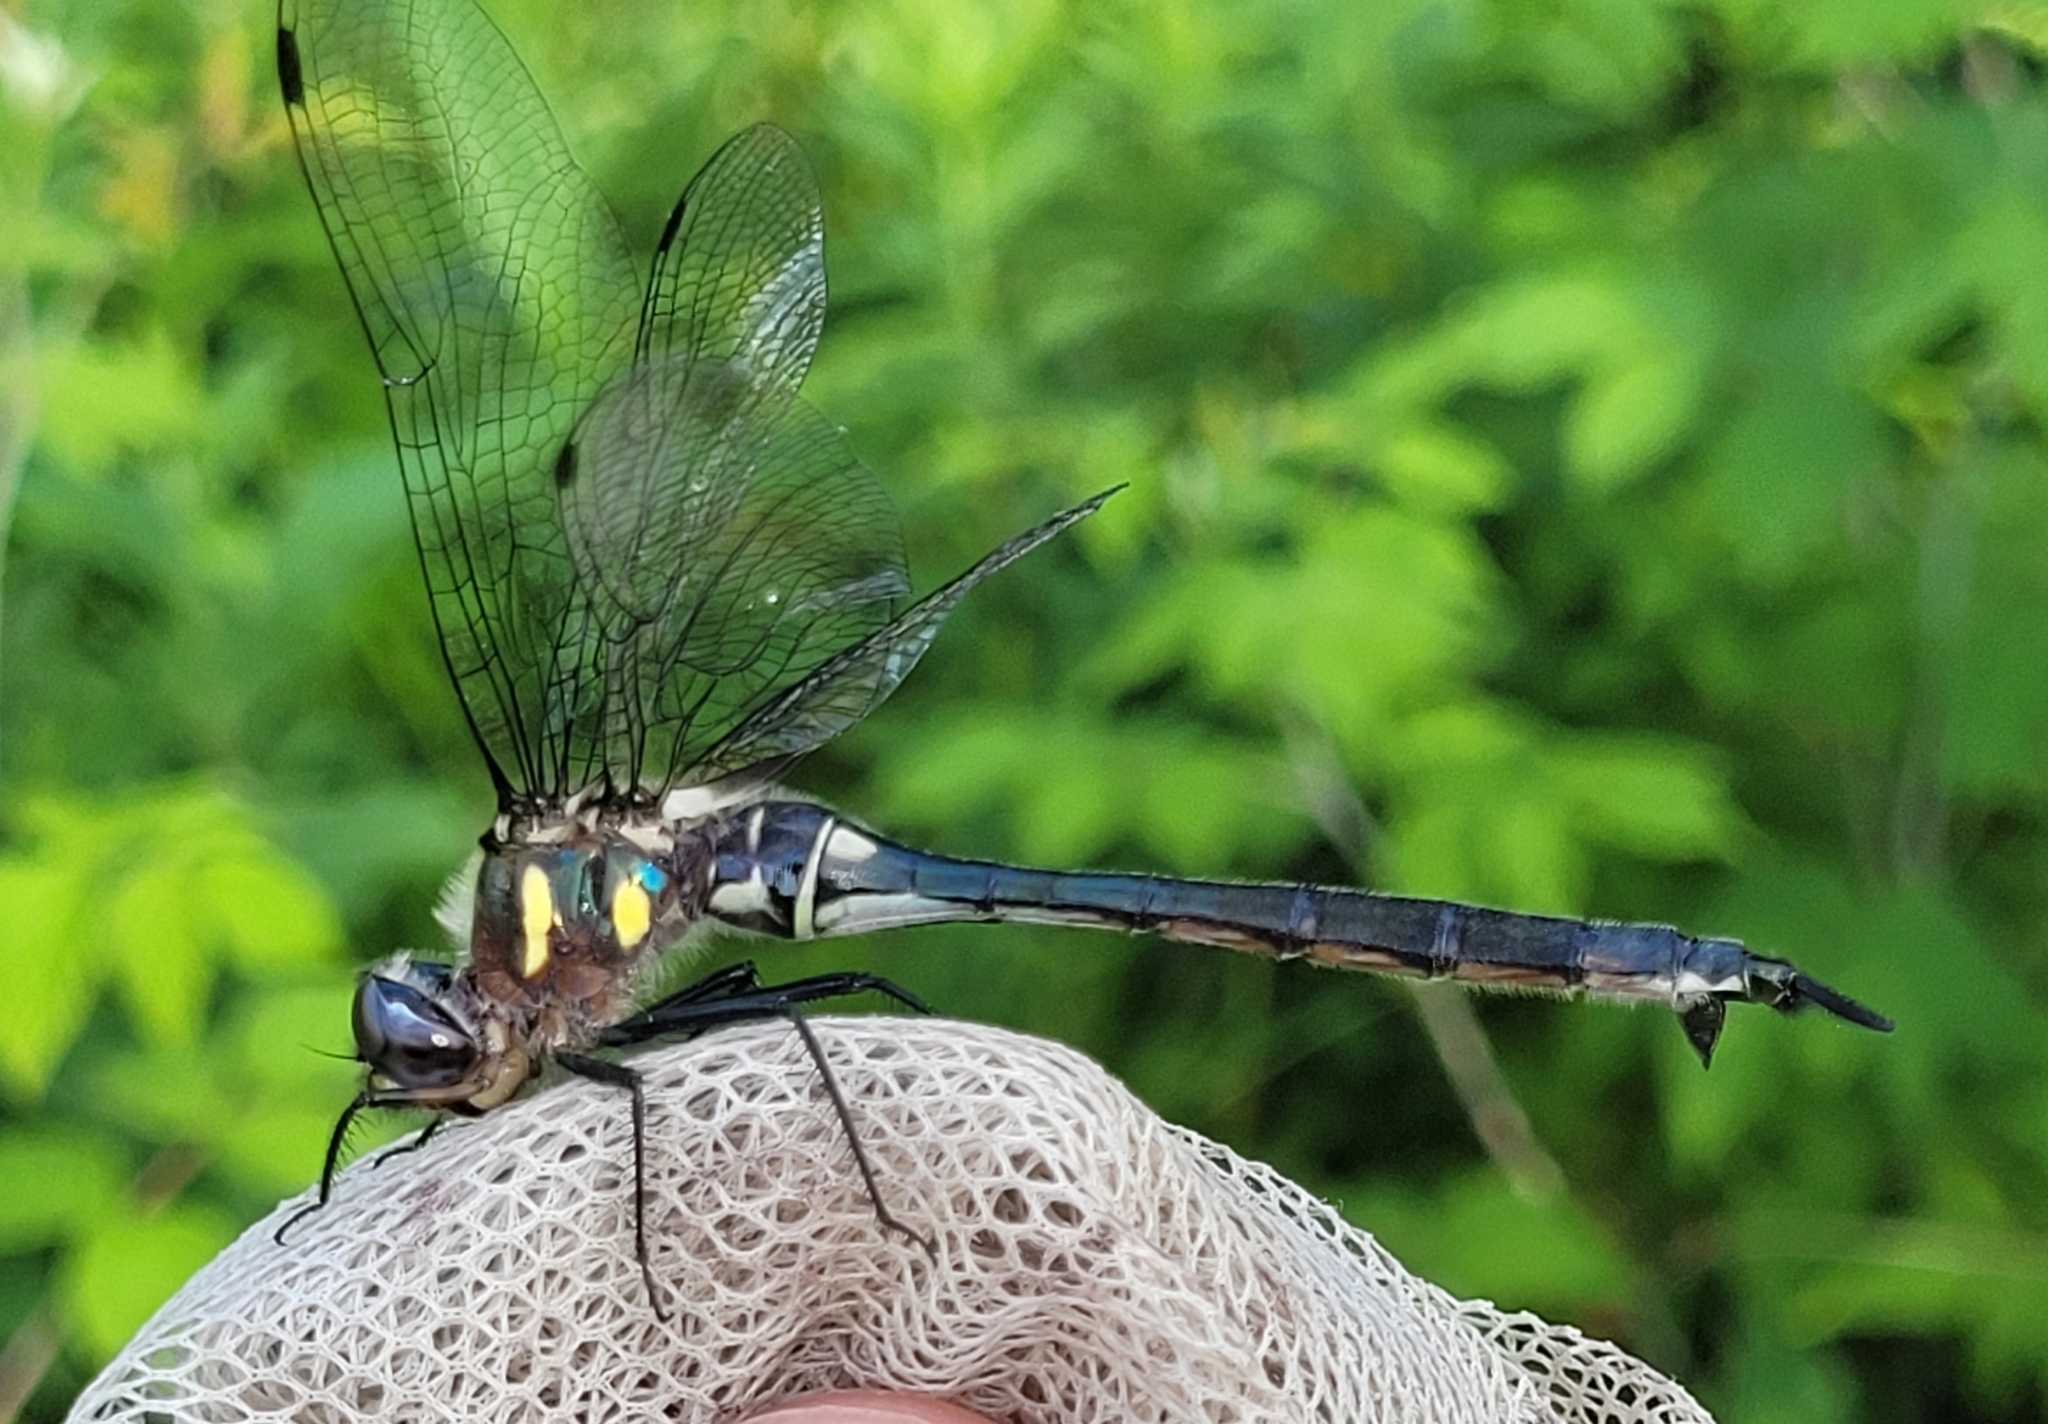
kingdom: Animalia
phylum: Arthropoda
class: Insecta
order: Odonata
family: Corduliidae
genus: Somatochlora
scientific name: Somatochlora elongata
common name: Ski-tipped emerald
